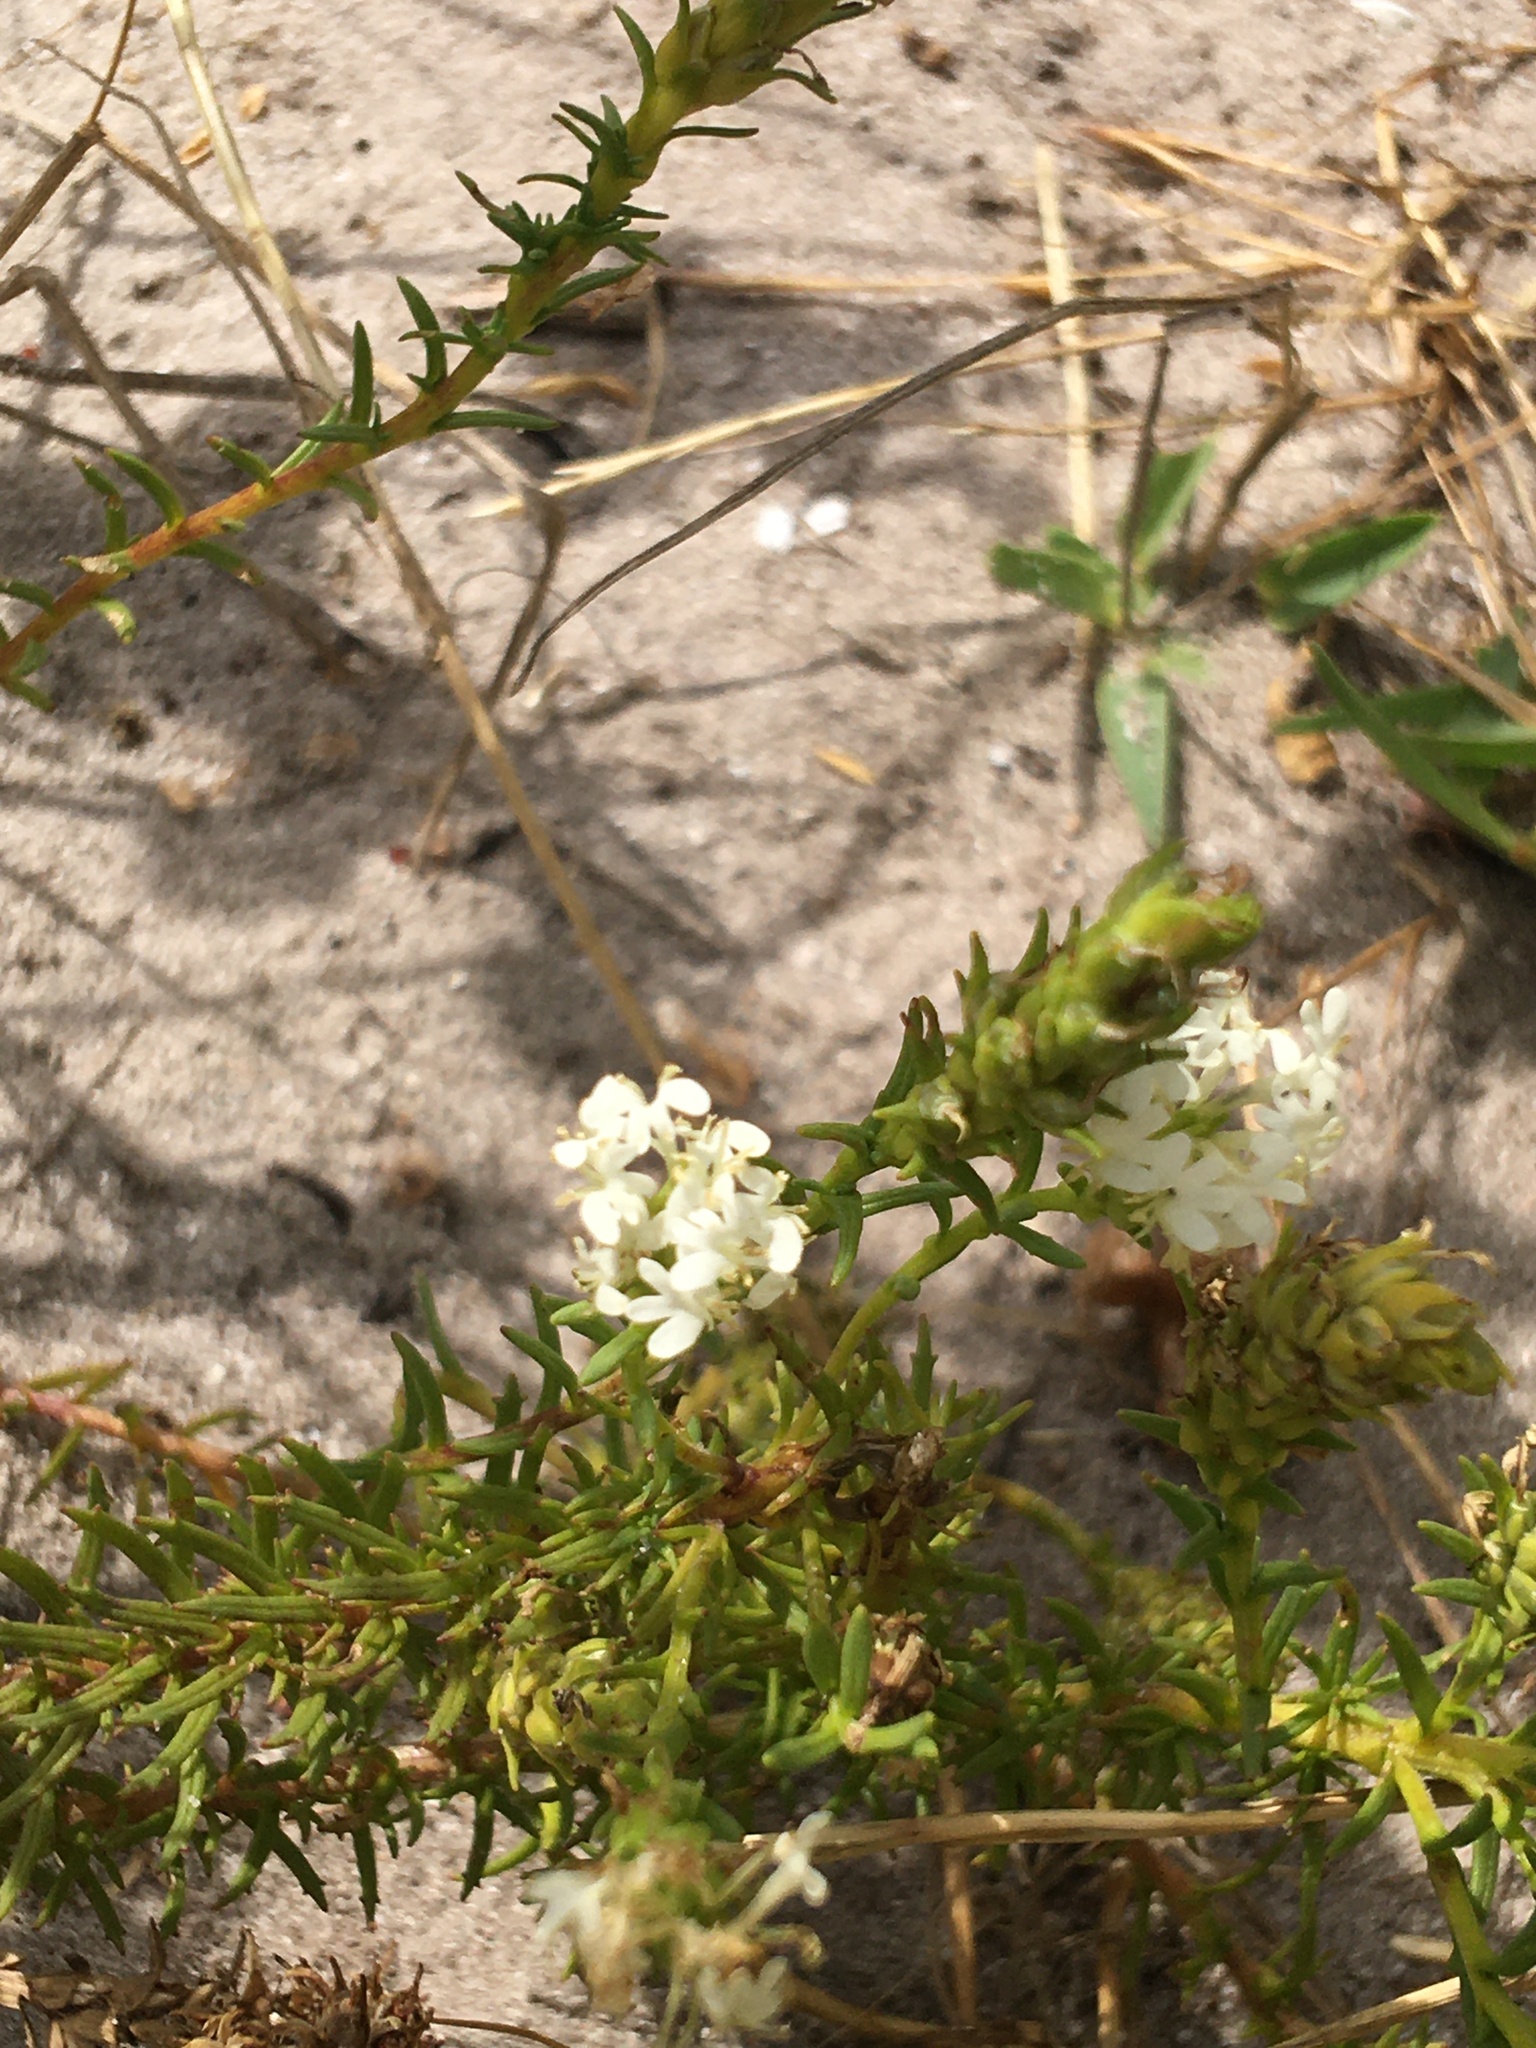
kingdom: Plantae
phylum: Tracheophyta
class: Magnoliopsida
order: Lamiales
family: Scrophulariaceae
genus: Dischisma
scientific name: Dischisma ciliatum
